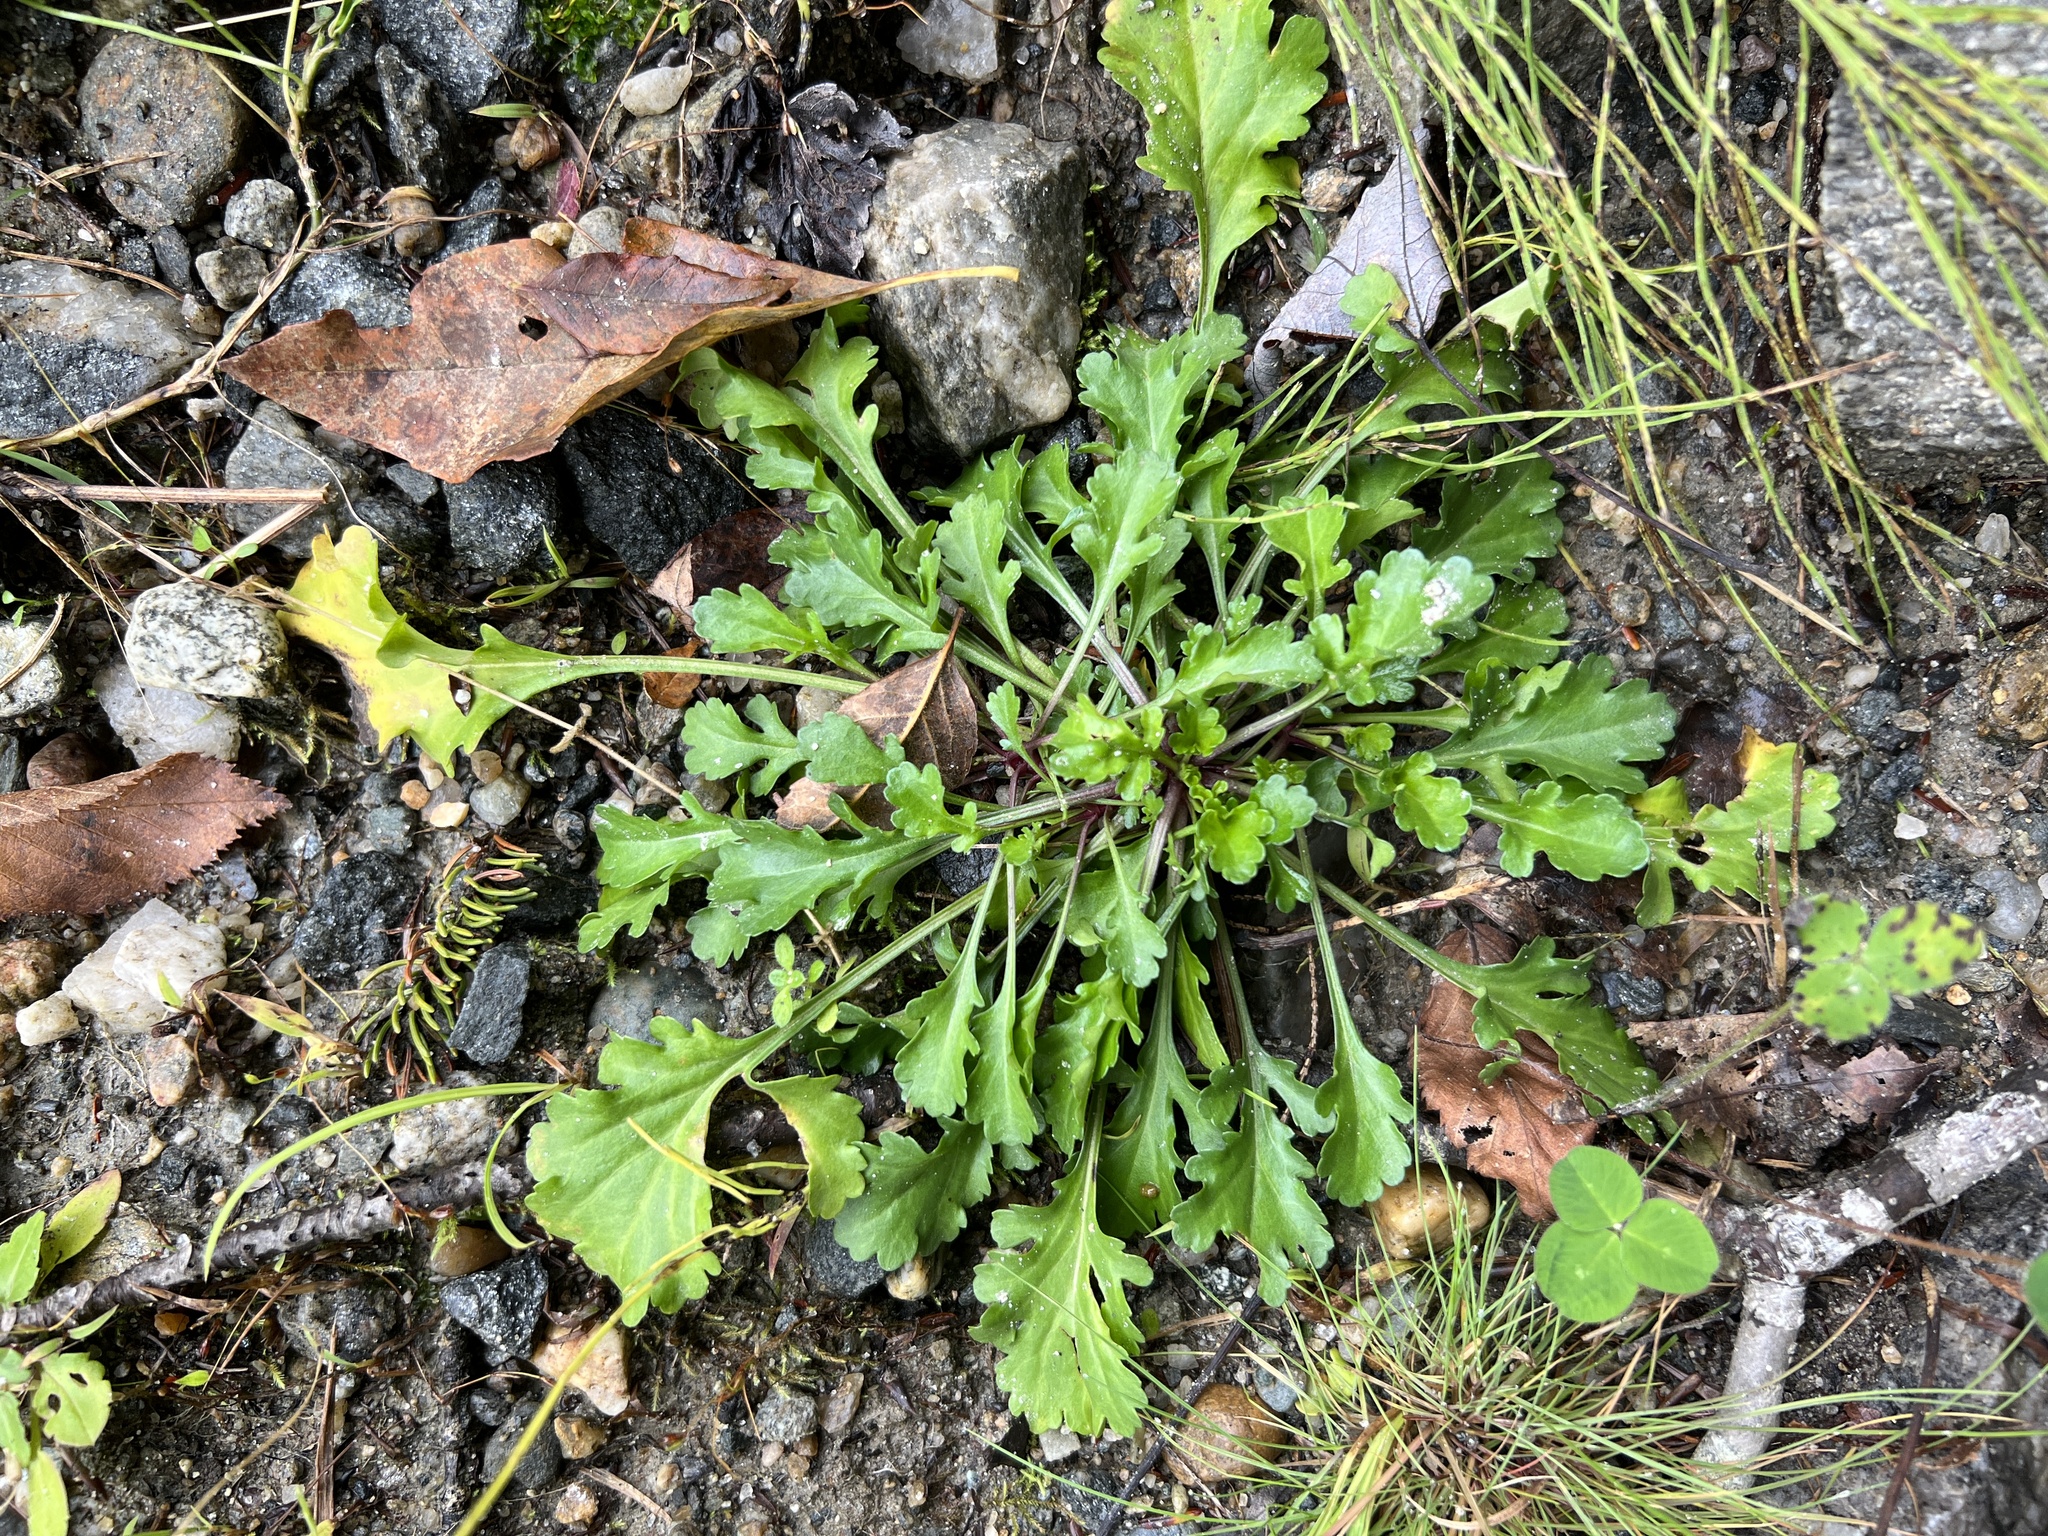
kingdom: Plantae
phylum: Tracheophyta
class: Magnoliopsida
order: Asterales
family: Asteraceae
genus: Leucanthemum
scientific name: Leucanthemum vulgare
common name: Oxeye daisy
